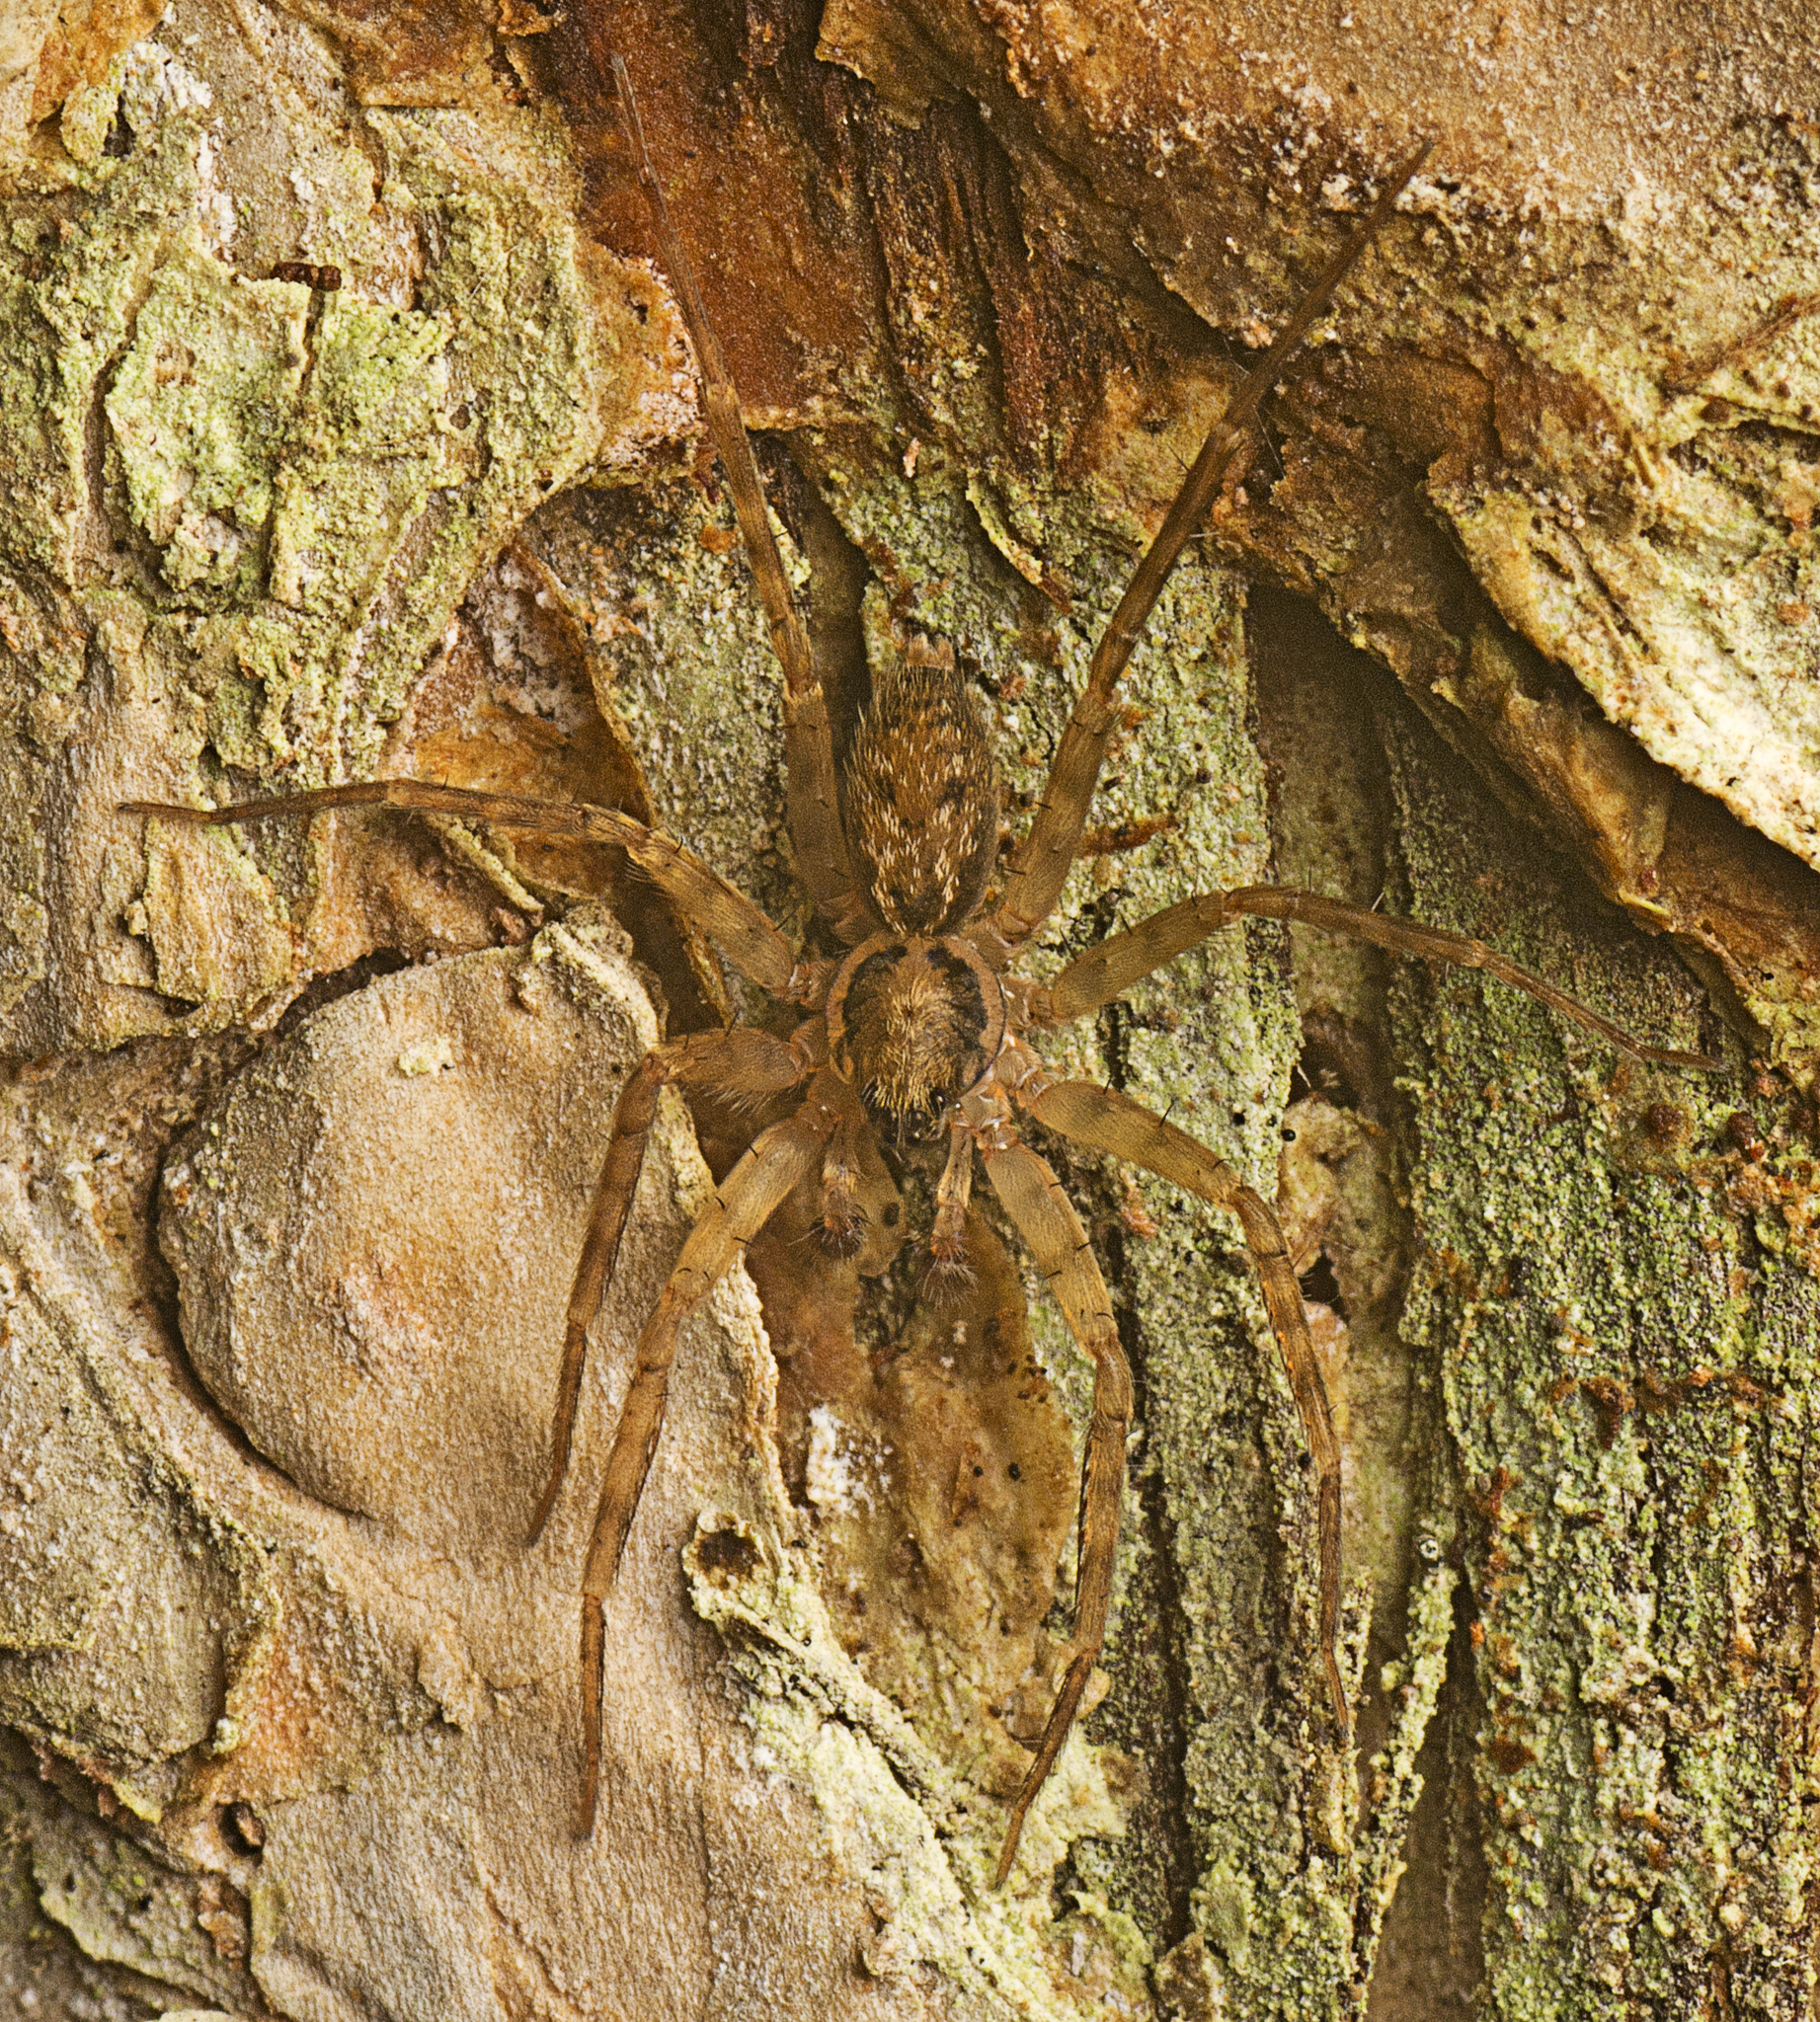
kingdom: Animalia
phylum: Arthropoda
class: Arachnida
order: Araneae
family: Toxopidae
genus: Toxopsoides
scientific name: Toxopsoides erici
